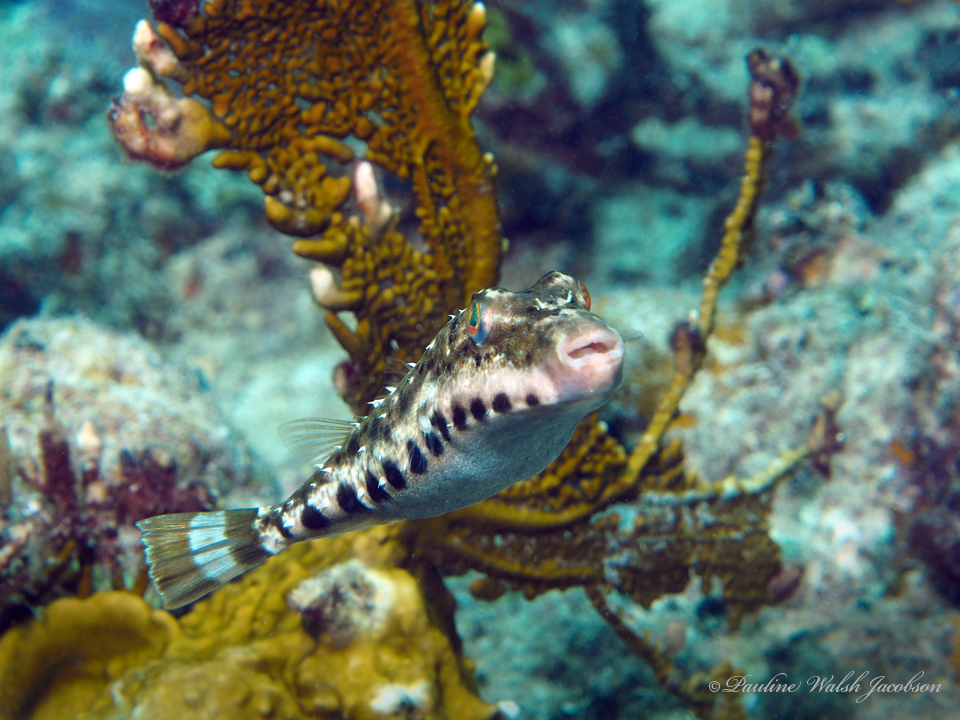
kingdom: Animalia
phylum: Chordata
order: Tetraodontiformes
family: Tetraodontidae
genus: Sphoeroides
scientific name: Sphoeroides spengleri
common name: Bandtail puffer
